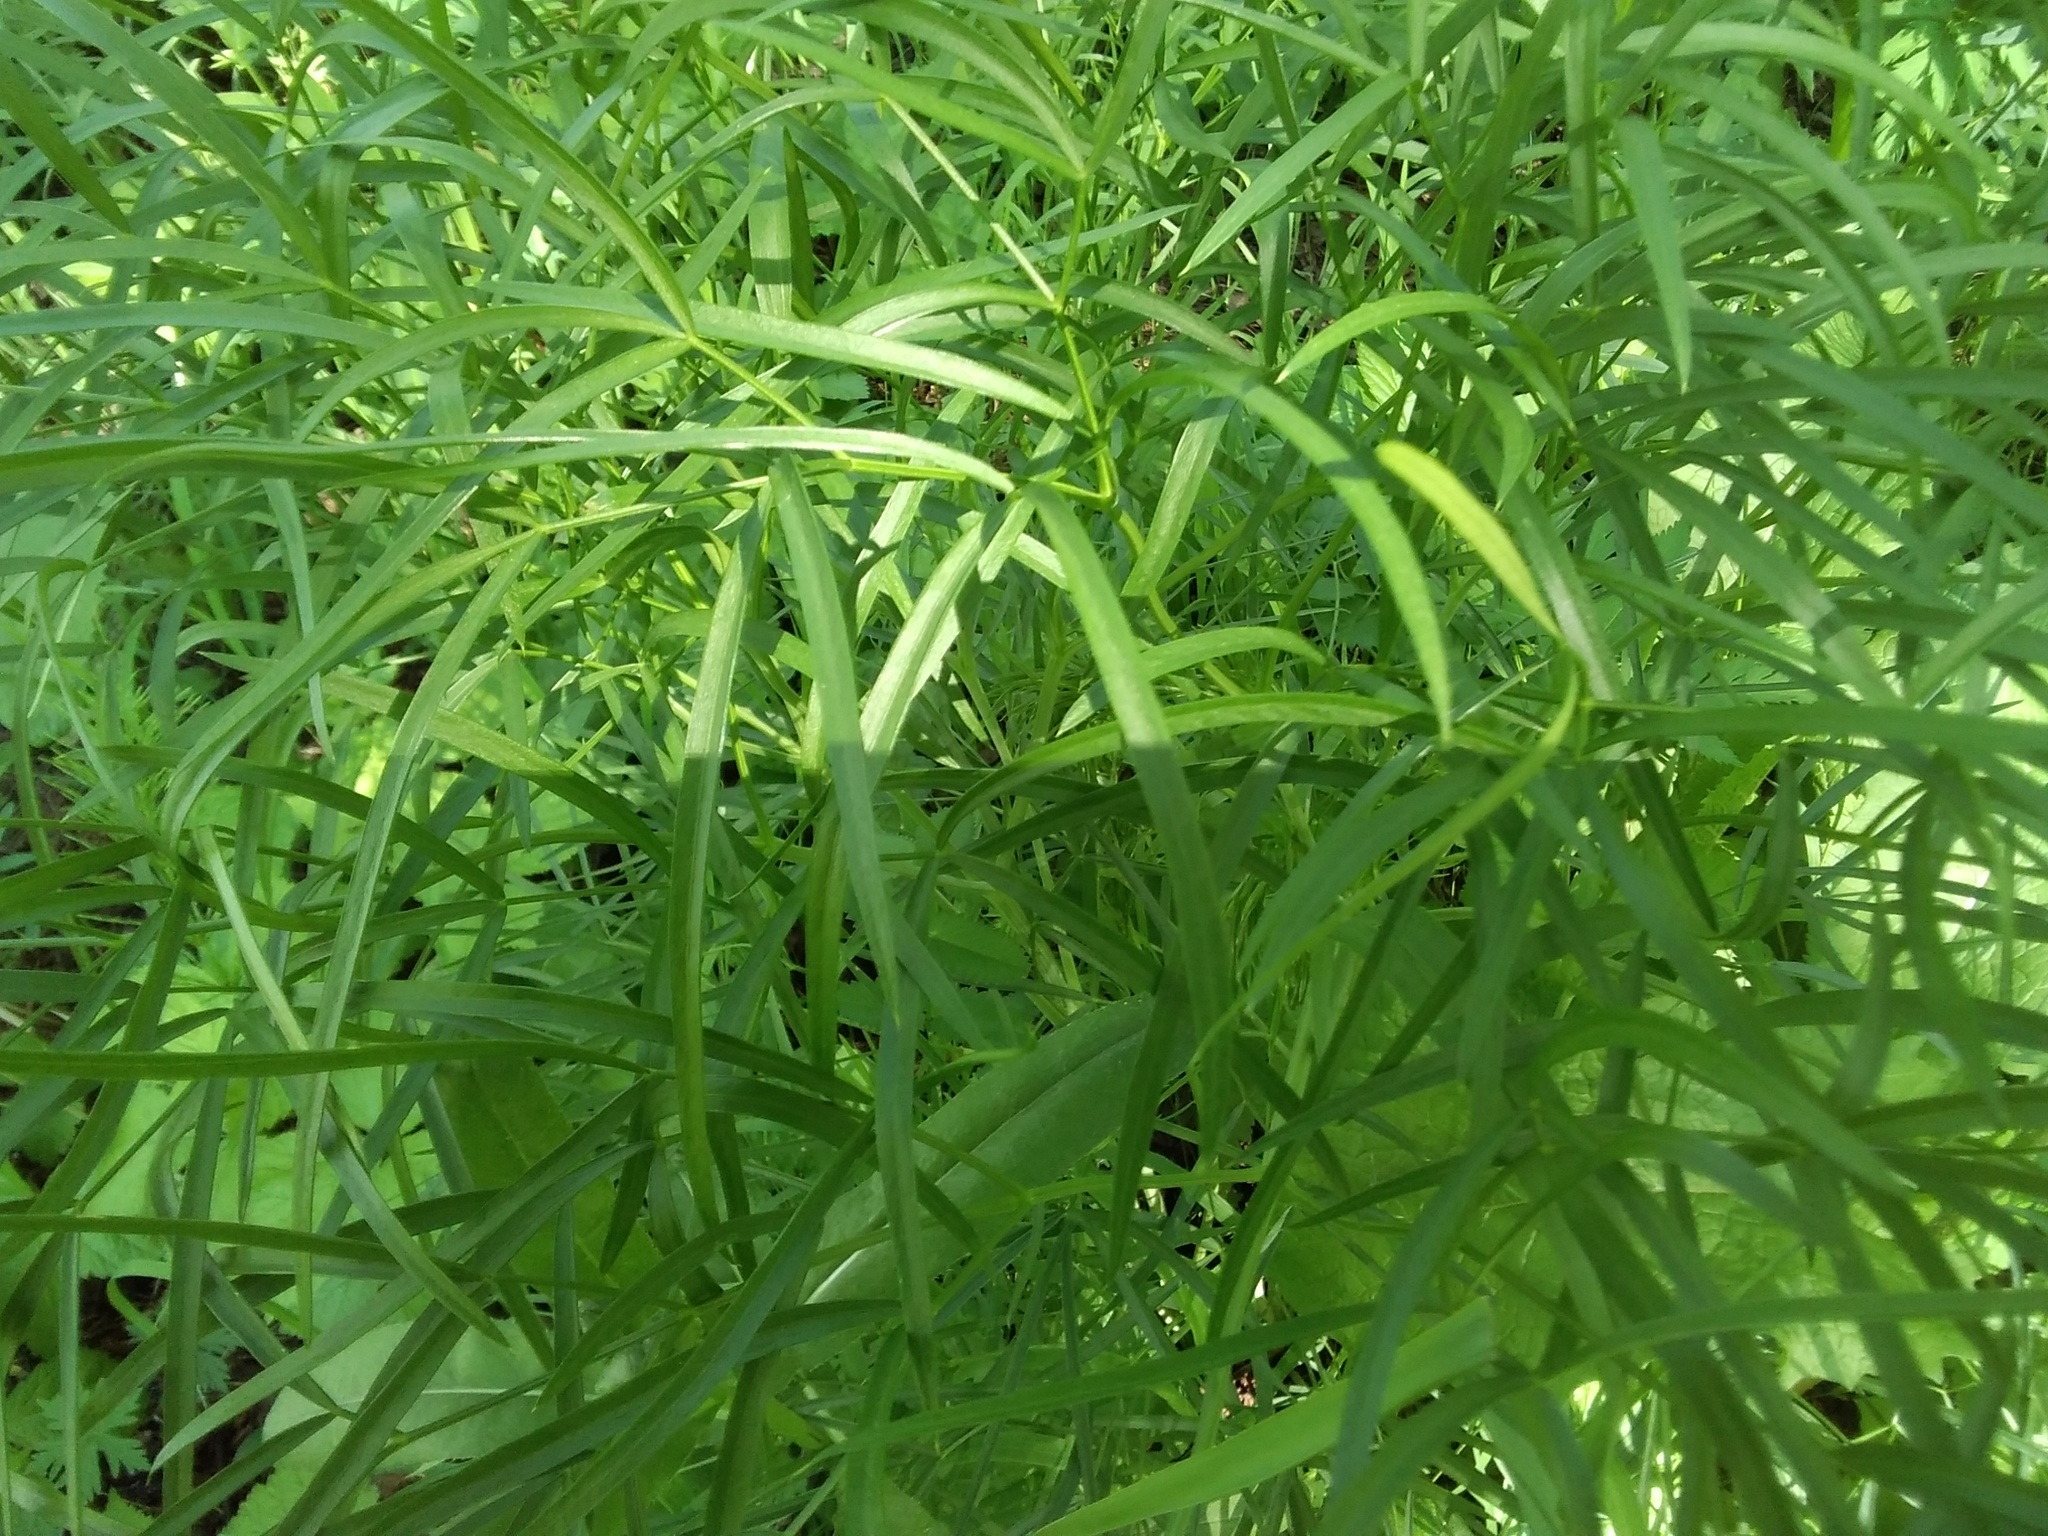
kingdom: Plantae
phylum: Tracheophyta
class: Magnoliopsida
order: Apiales
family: Apiaceae
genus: Peucedanum
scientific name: Peucedanum morisonii
